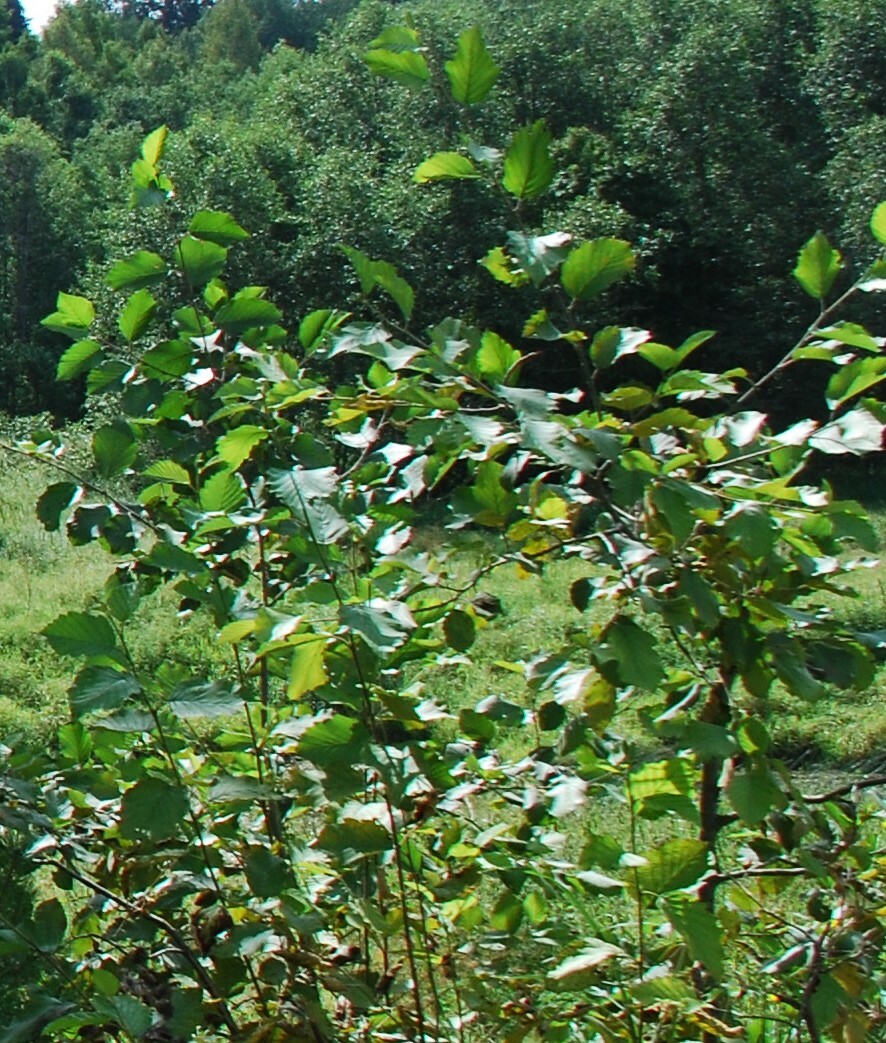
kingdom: Plantae
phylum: Tracheophyta
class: Magnoliopsida
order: Fagales
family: Betulaceae
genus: Alnus
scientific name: Alnus incana
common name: Grey alder
